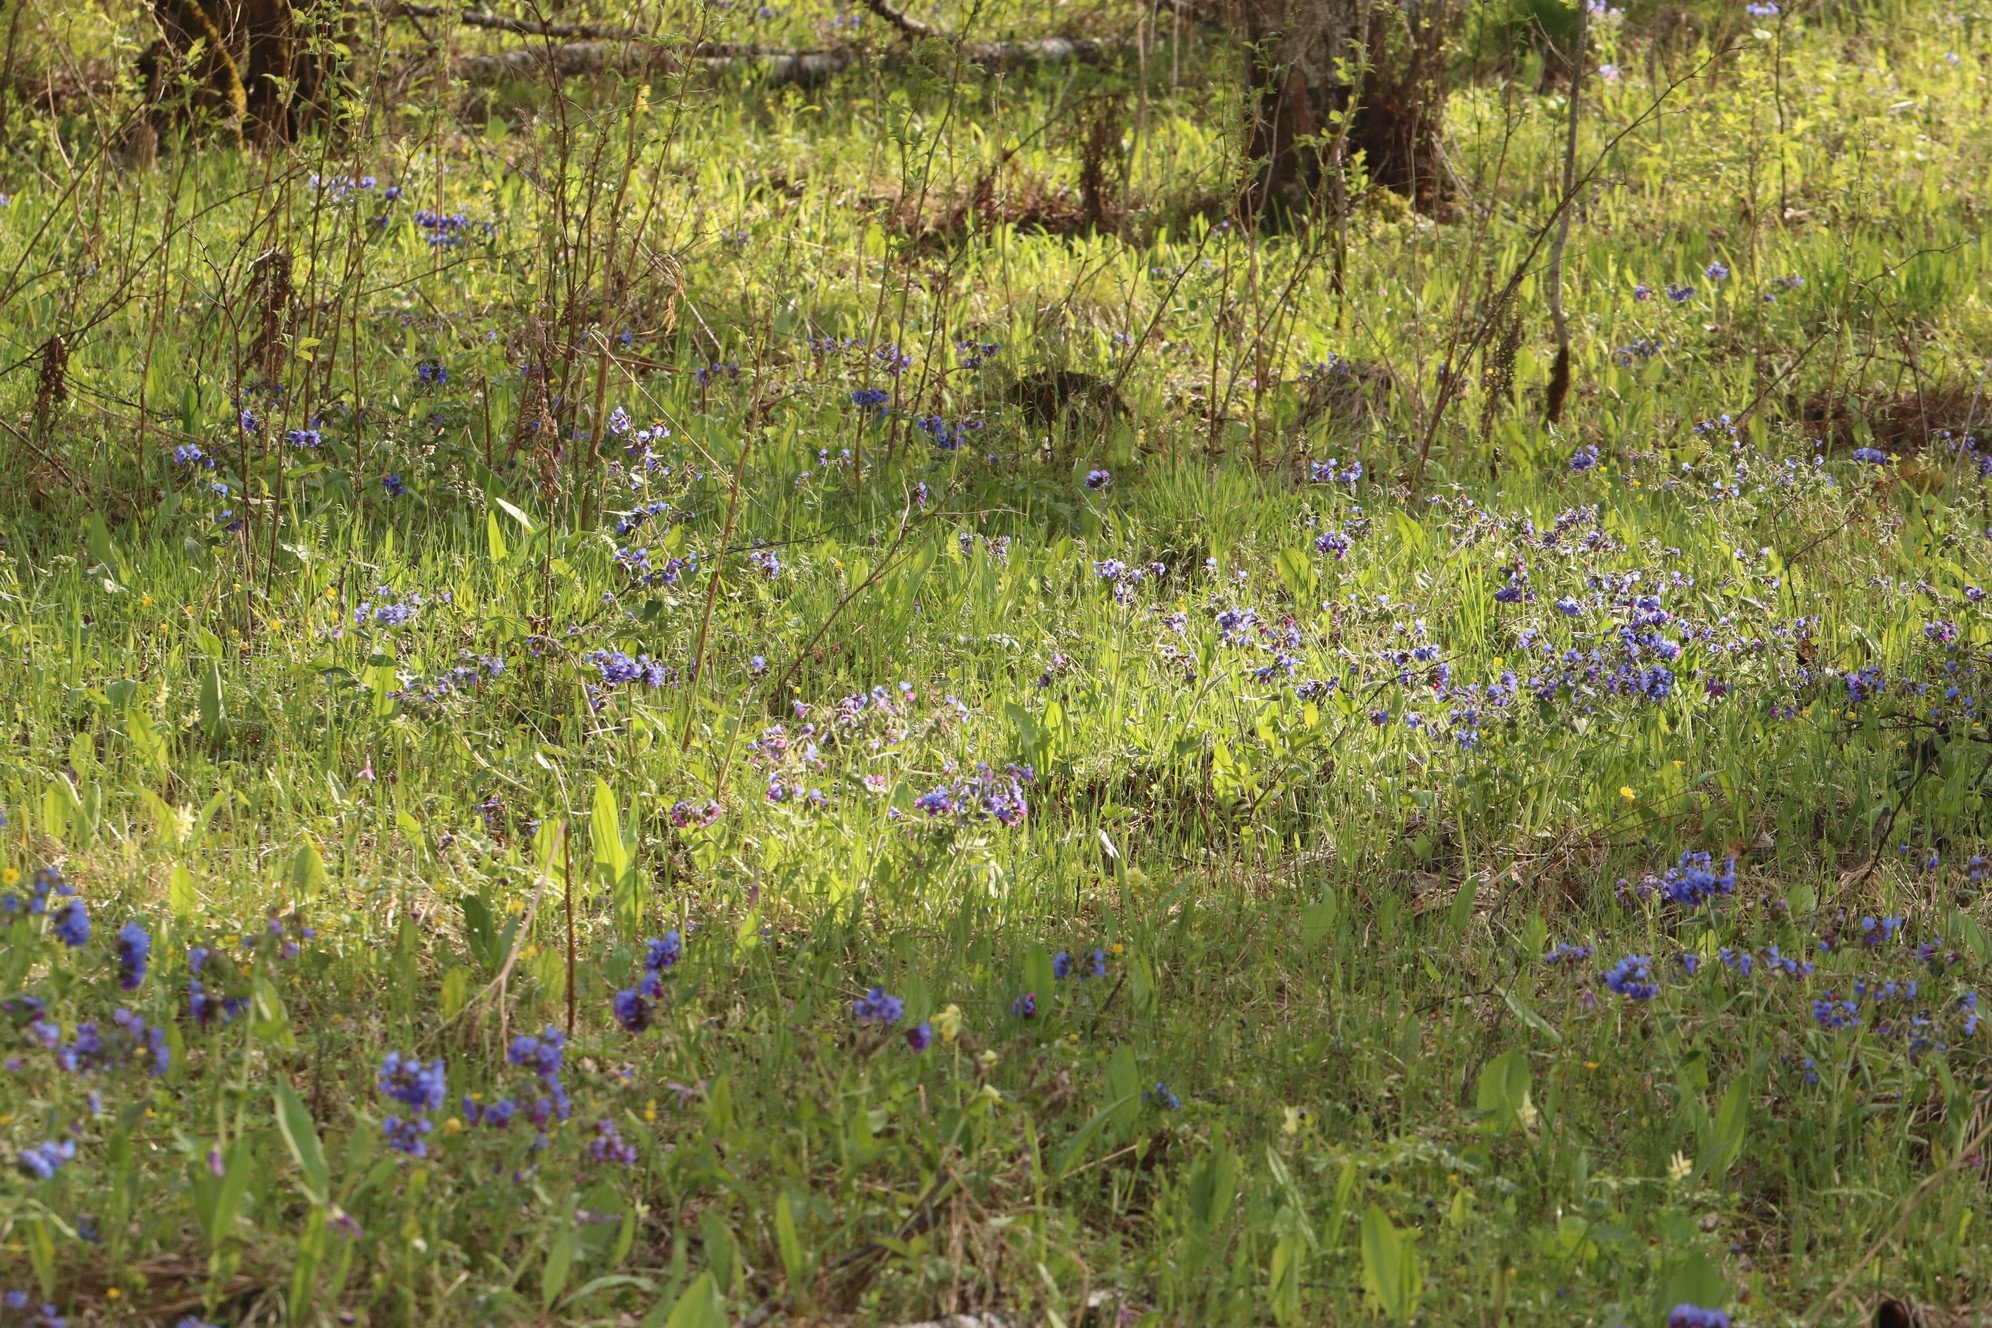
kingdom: Plantae
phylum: Tracheophyta
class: Magnoliopsida
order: Boraginales
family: Boraginaceae
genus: Pulmonaria
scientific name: Pulmonaria mollis
